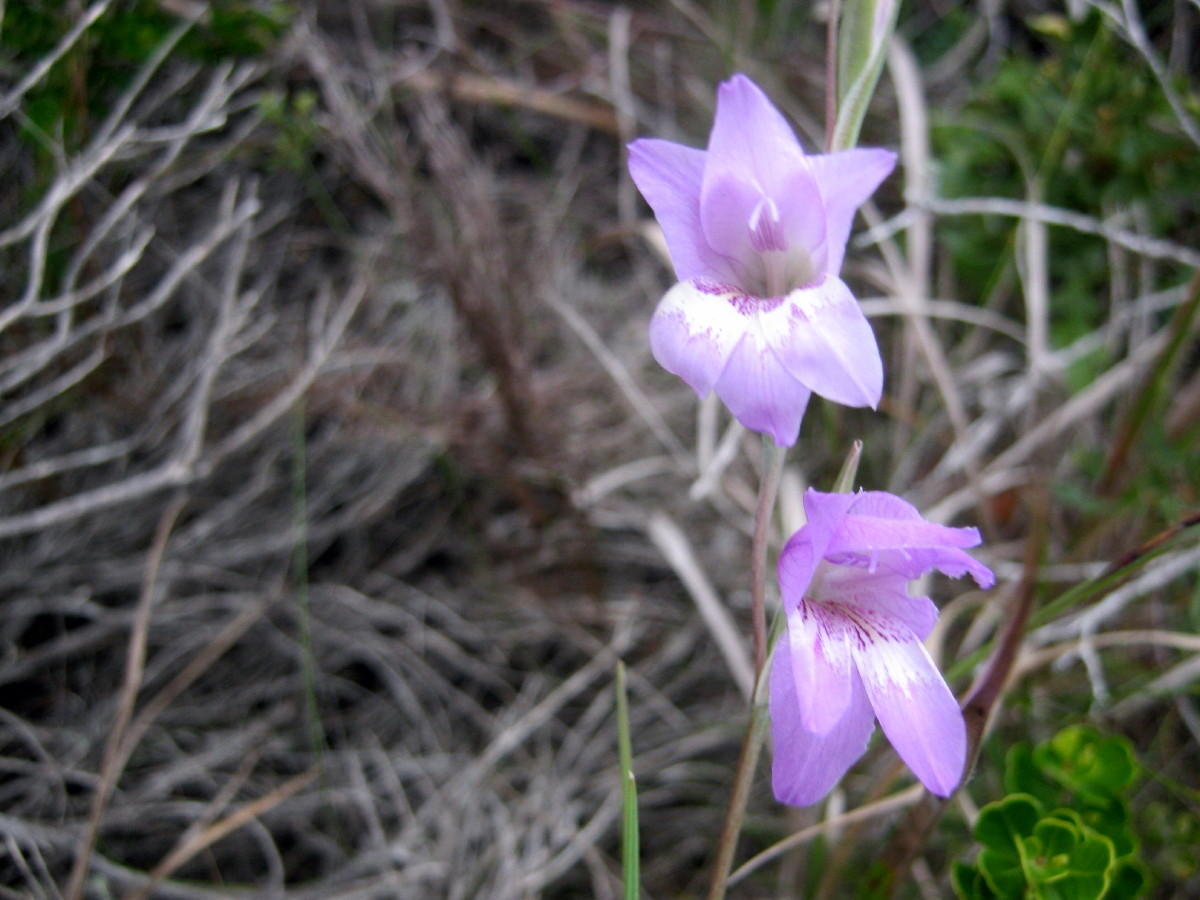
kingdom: Plantae
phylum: Tracheophyta
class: Liliopsida
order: Asparagales
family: Iridaceae
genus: Gladiolus
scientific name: Gladiolus carinatus
